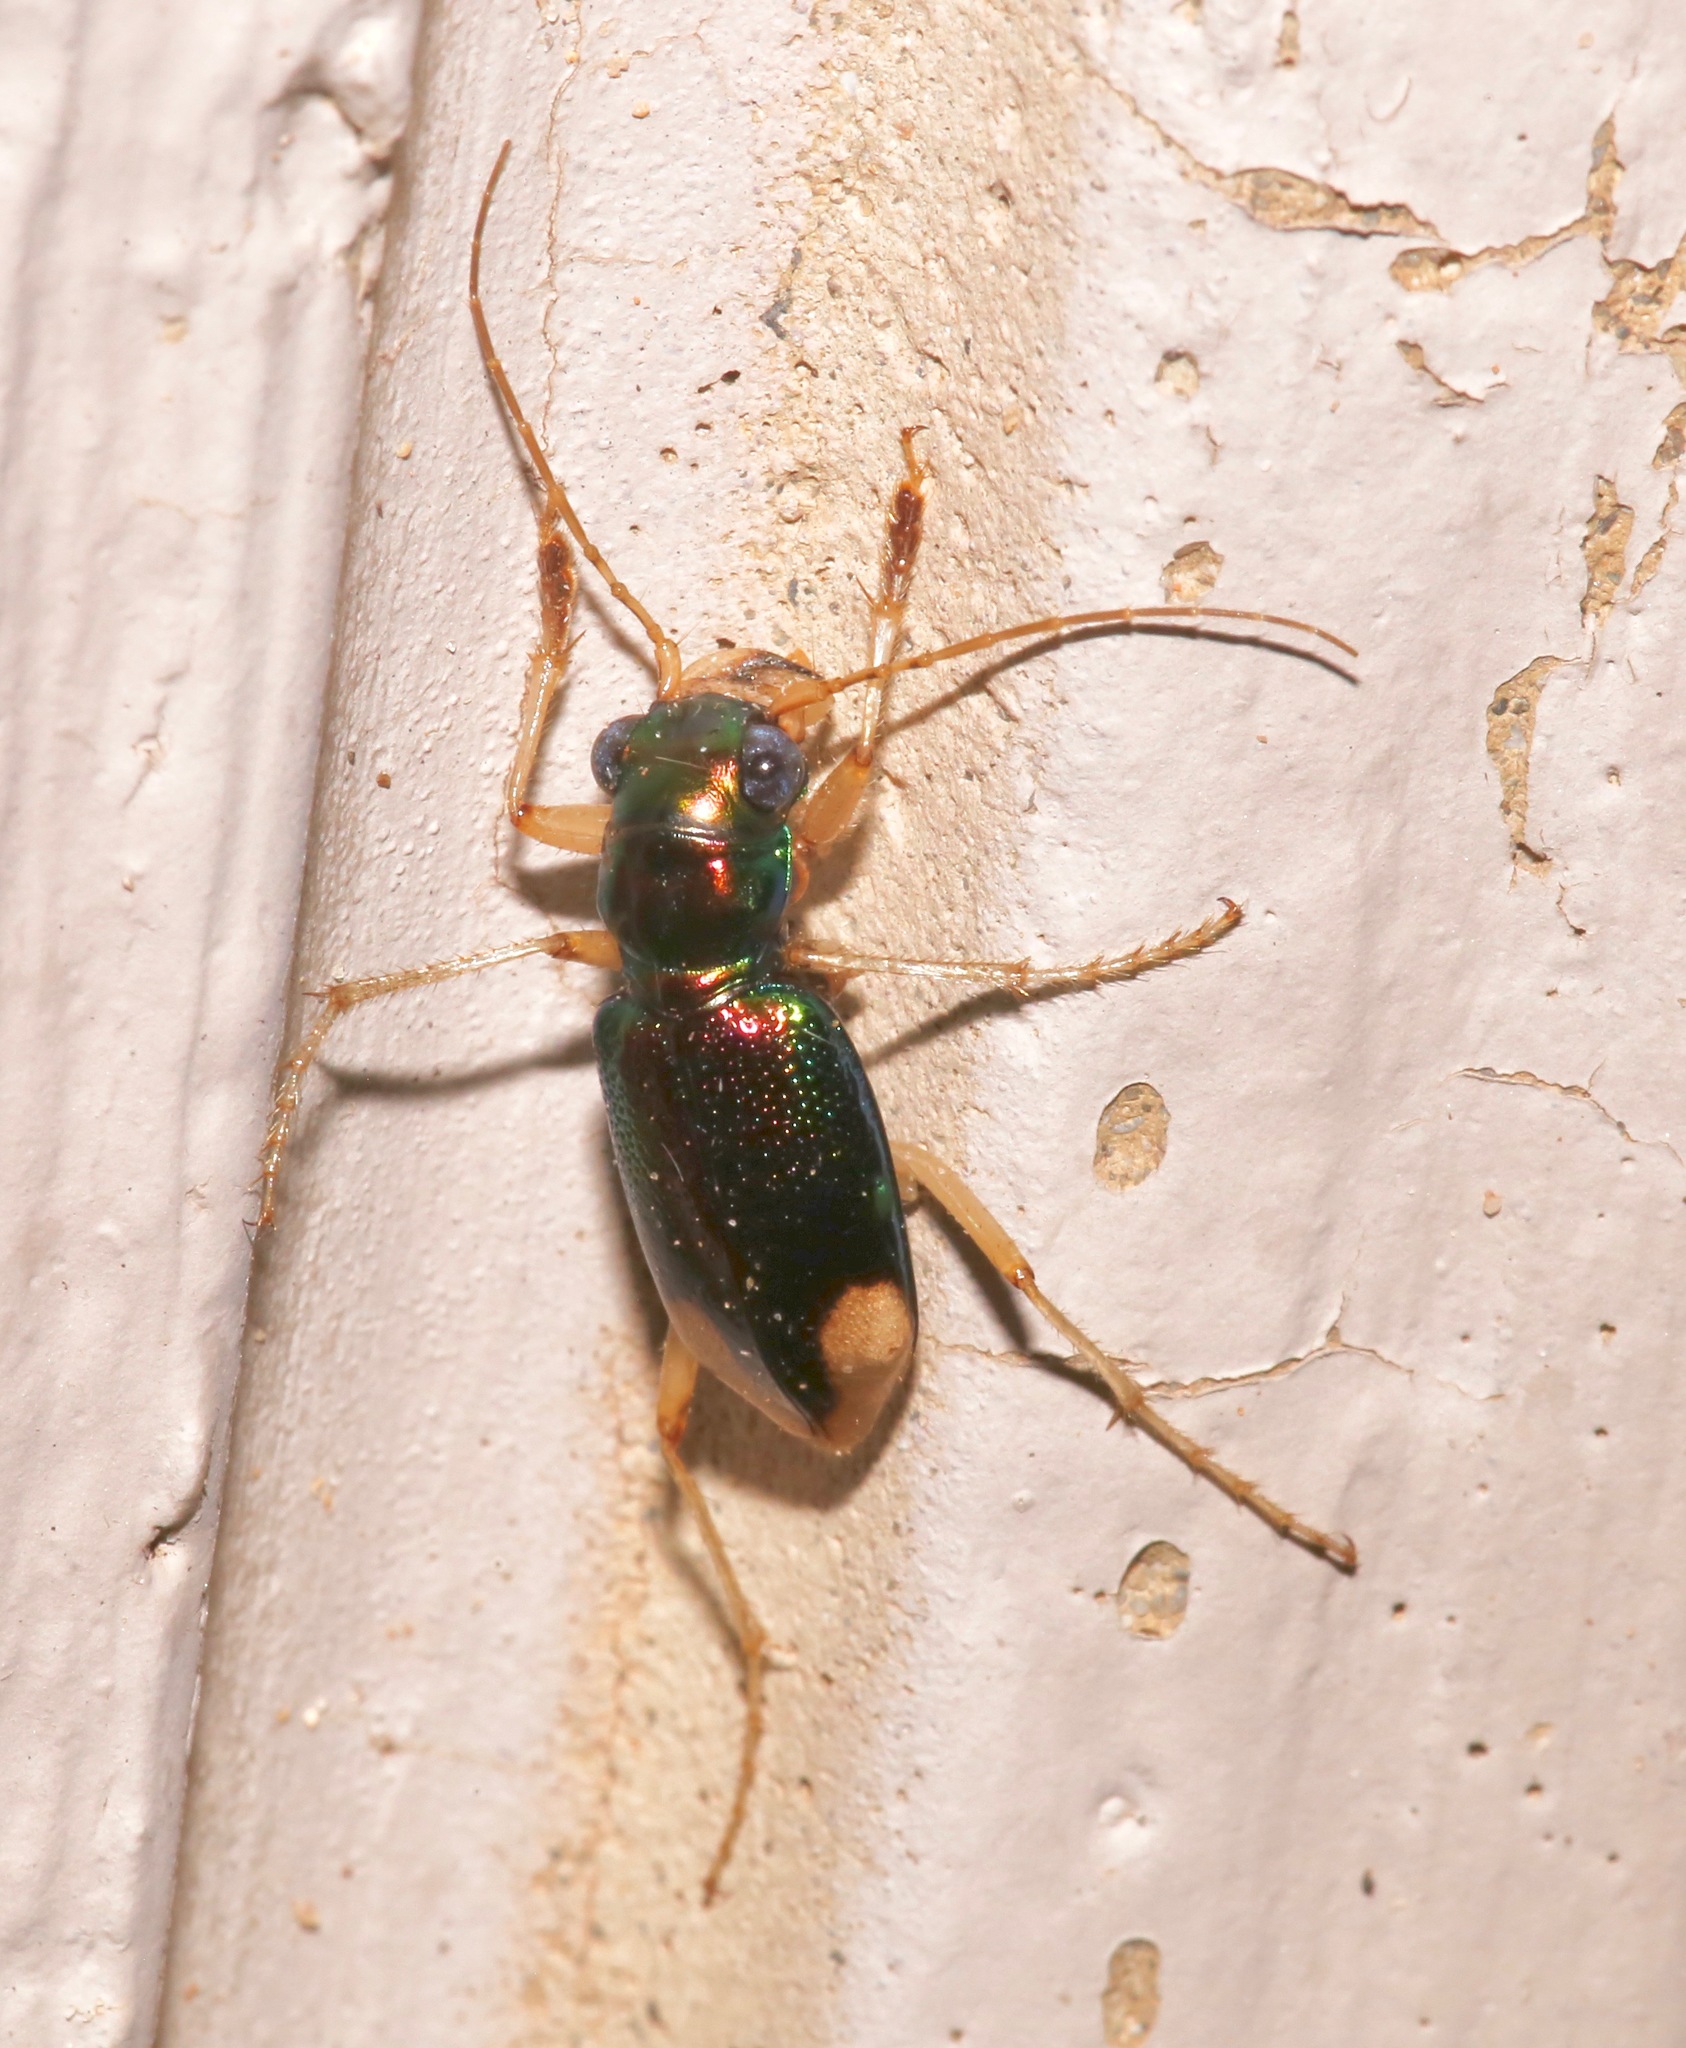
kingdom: Animalia
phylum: Arthropoda
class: Insecta
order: Coleoptera
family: Carabidae
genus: Tetracha
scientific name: Tetracha carolina
